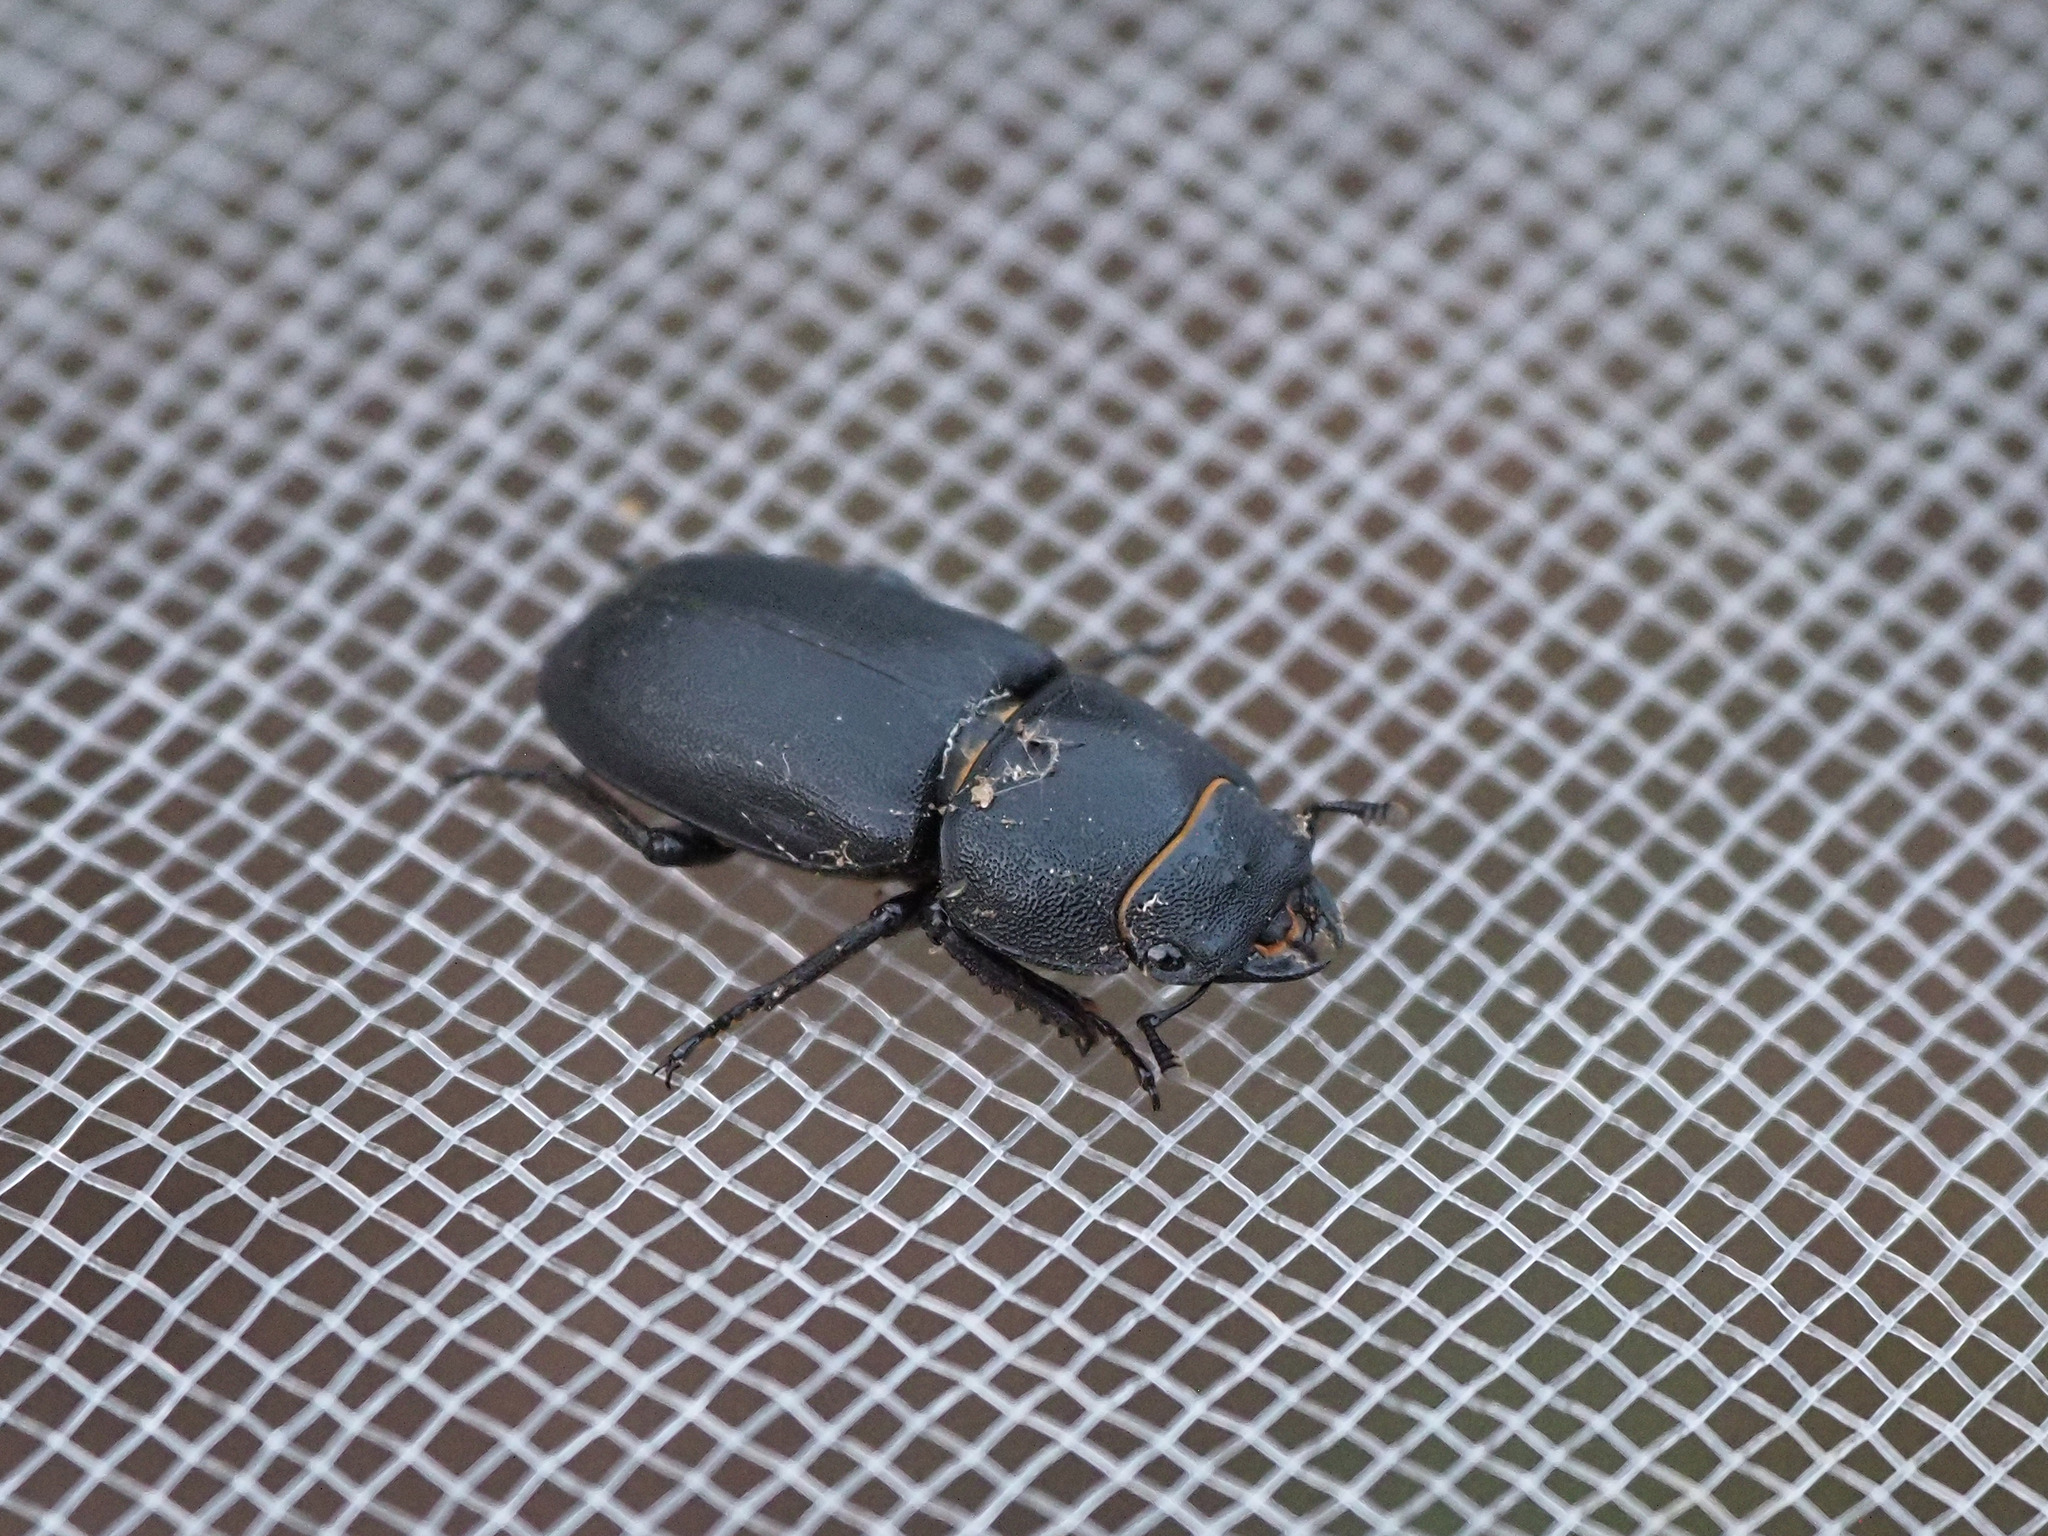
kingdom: Animalia
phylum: Arthropoda
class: Insecta
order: Coleoptera
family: Lucanidae
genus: Dorcus
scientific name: Dorcus parallelipipedus
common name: Lesser stag beetle
